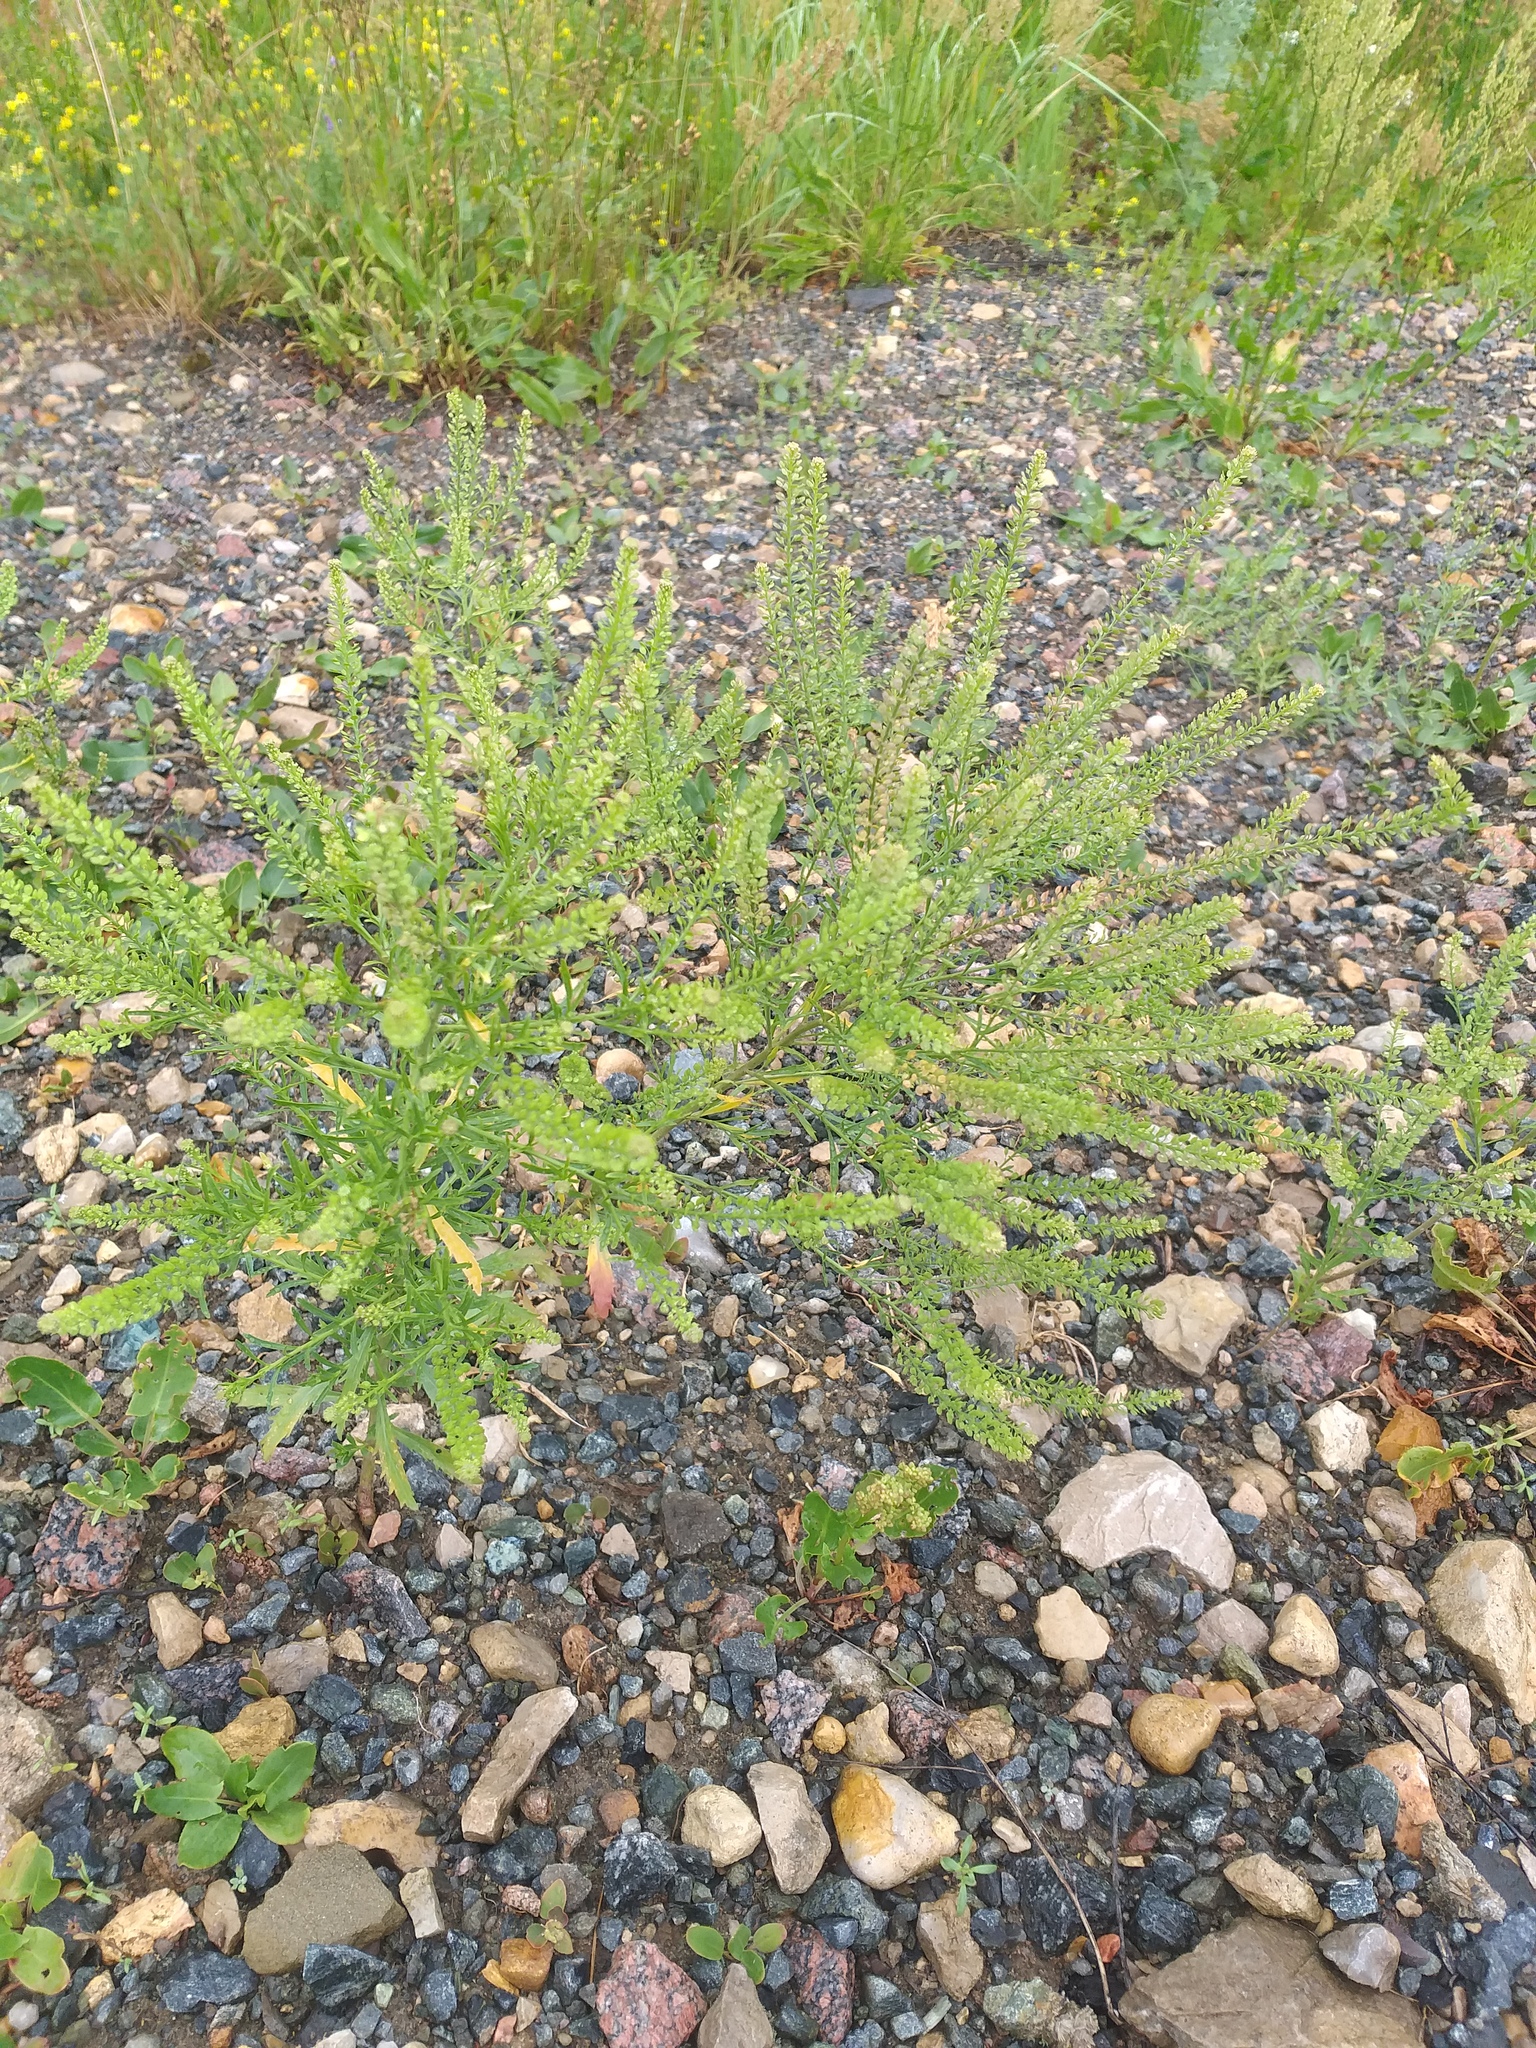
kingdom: Plantae
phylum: Tracheophyta
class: Magnoliopsida
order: Brassicales
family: Brassicaceae
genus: Lepidium
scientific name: Lepidium densiflorum
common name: Miner's pepperwort
